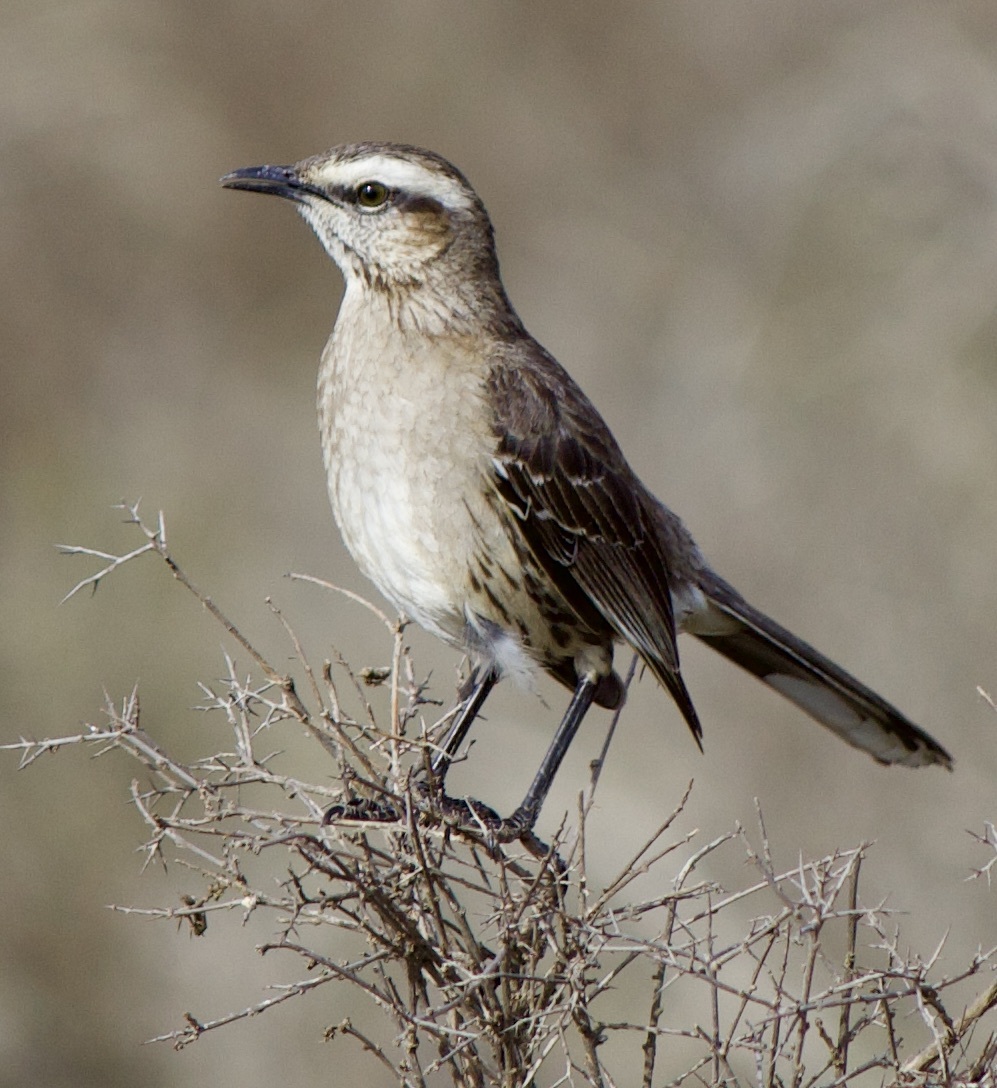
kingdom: Animalia
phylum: Chordata
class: Aves
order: Passeriformes
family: Mimidae
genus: Mimus
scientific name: Mimus thenca
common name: Chilean mockingbird
